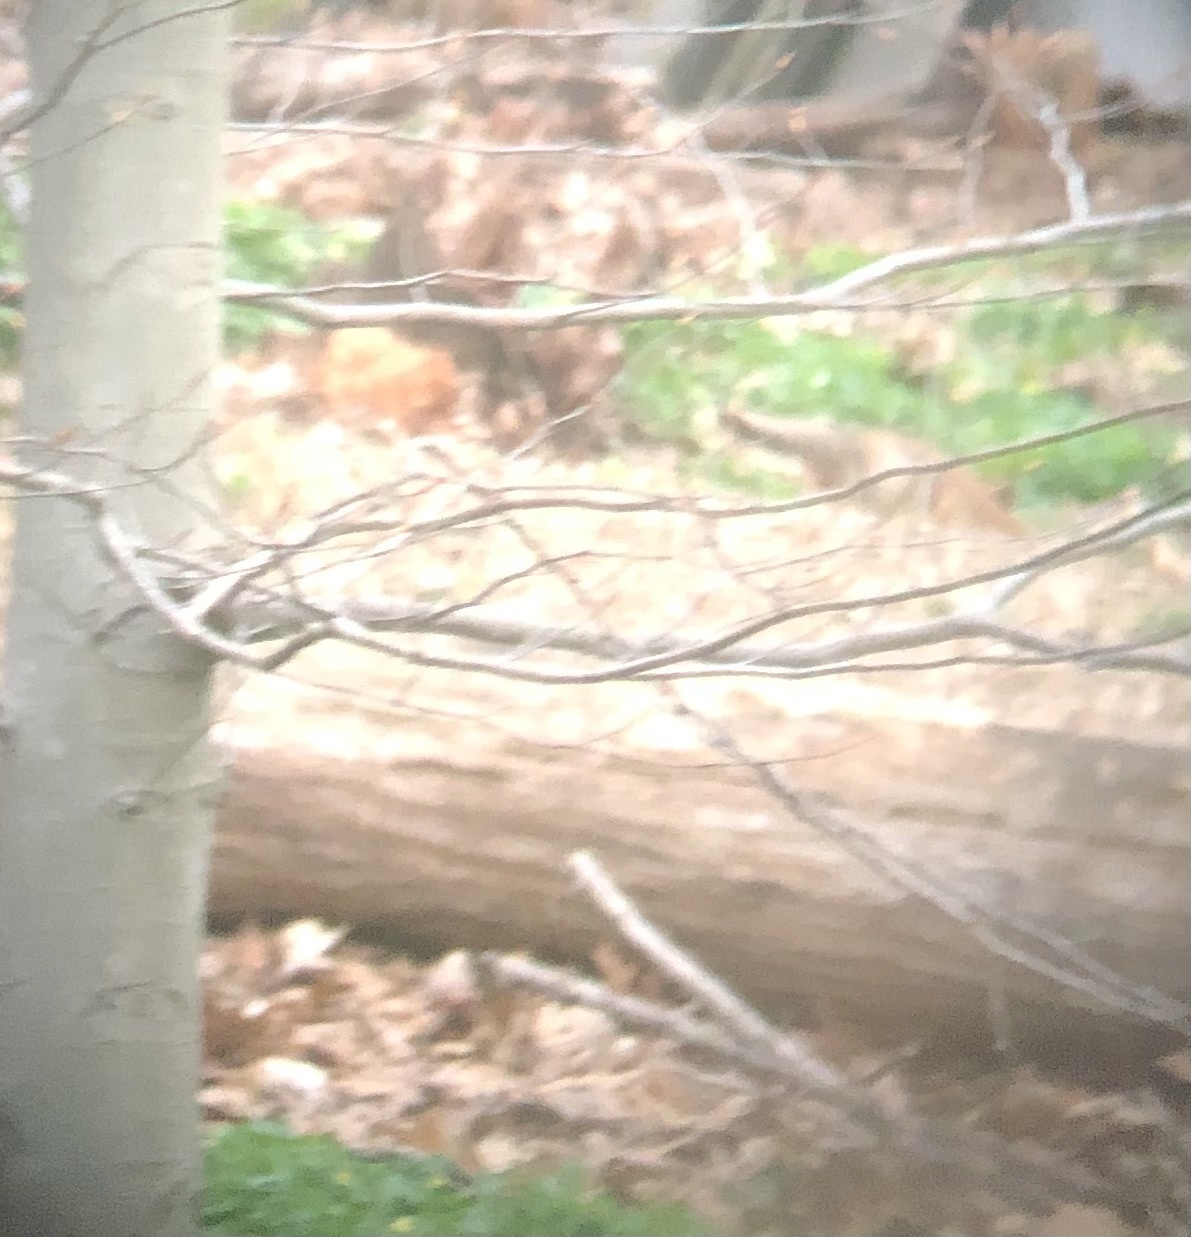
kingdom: Animalia
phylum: Chordata
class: Mammalia
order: Carnivora
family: Canidae
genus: Vulpes
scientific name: Vulpes vulpes
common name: Red fox
